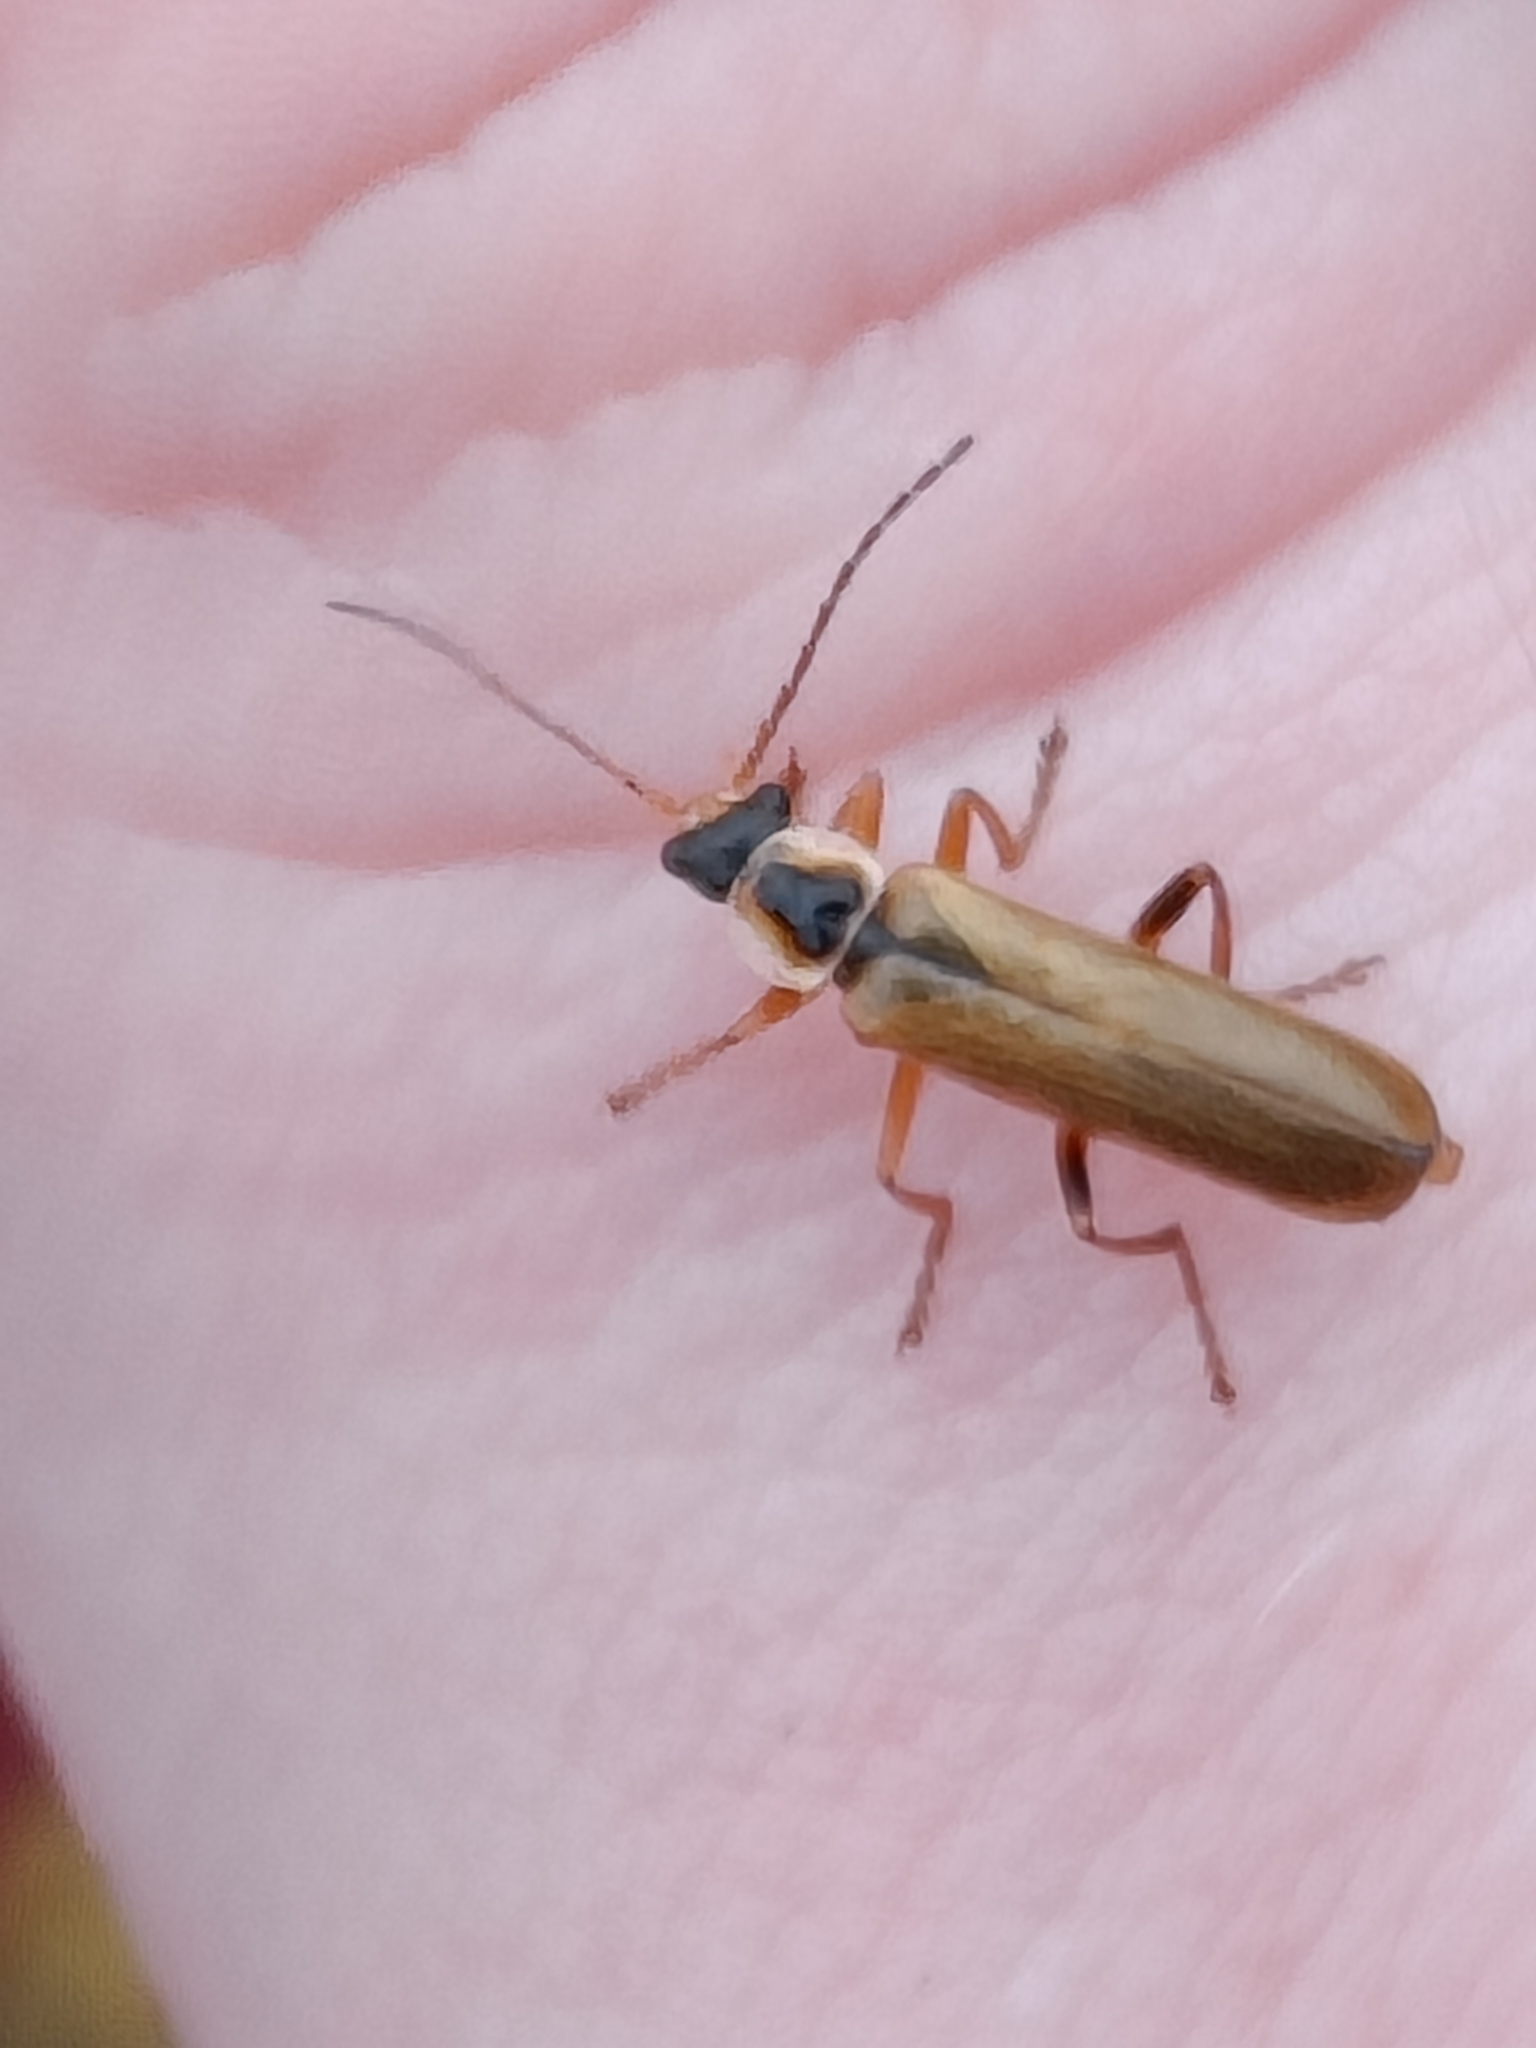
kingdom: Animalia
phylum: Arthropoda
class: Insecta
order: Coleoptera
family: Cantharidae
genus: Cantharis
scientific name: Cantharis decipiens
